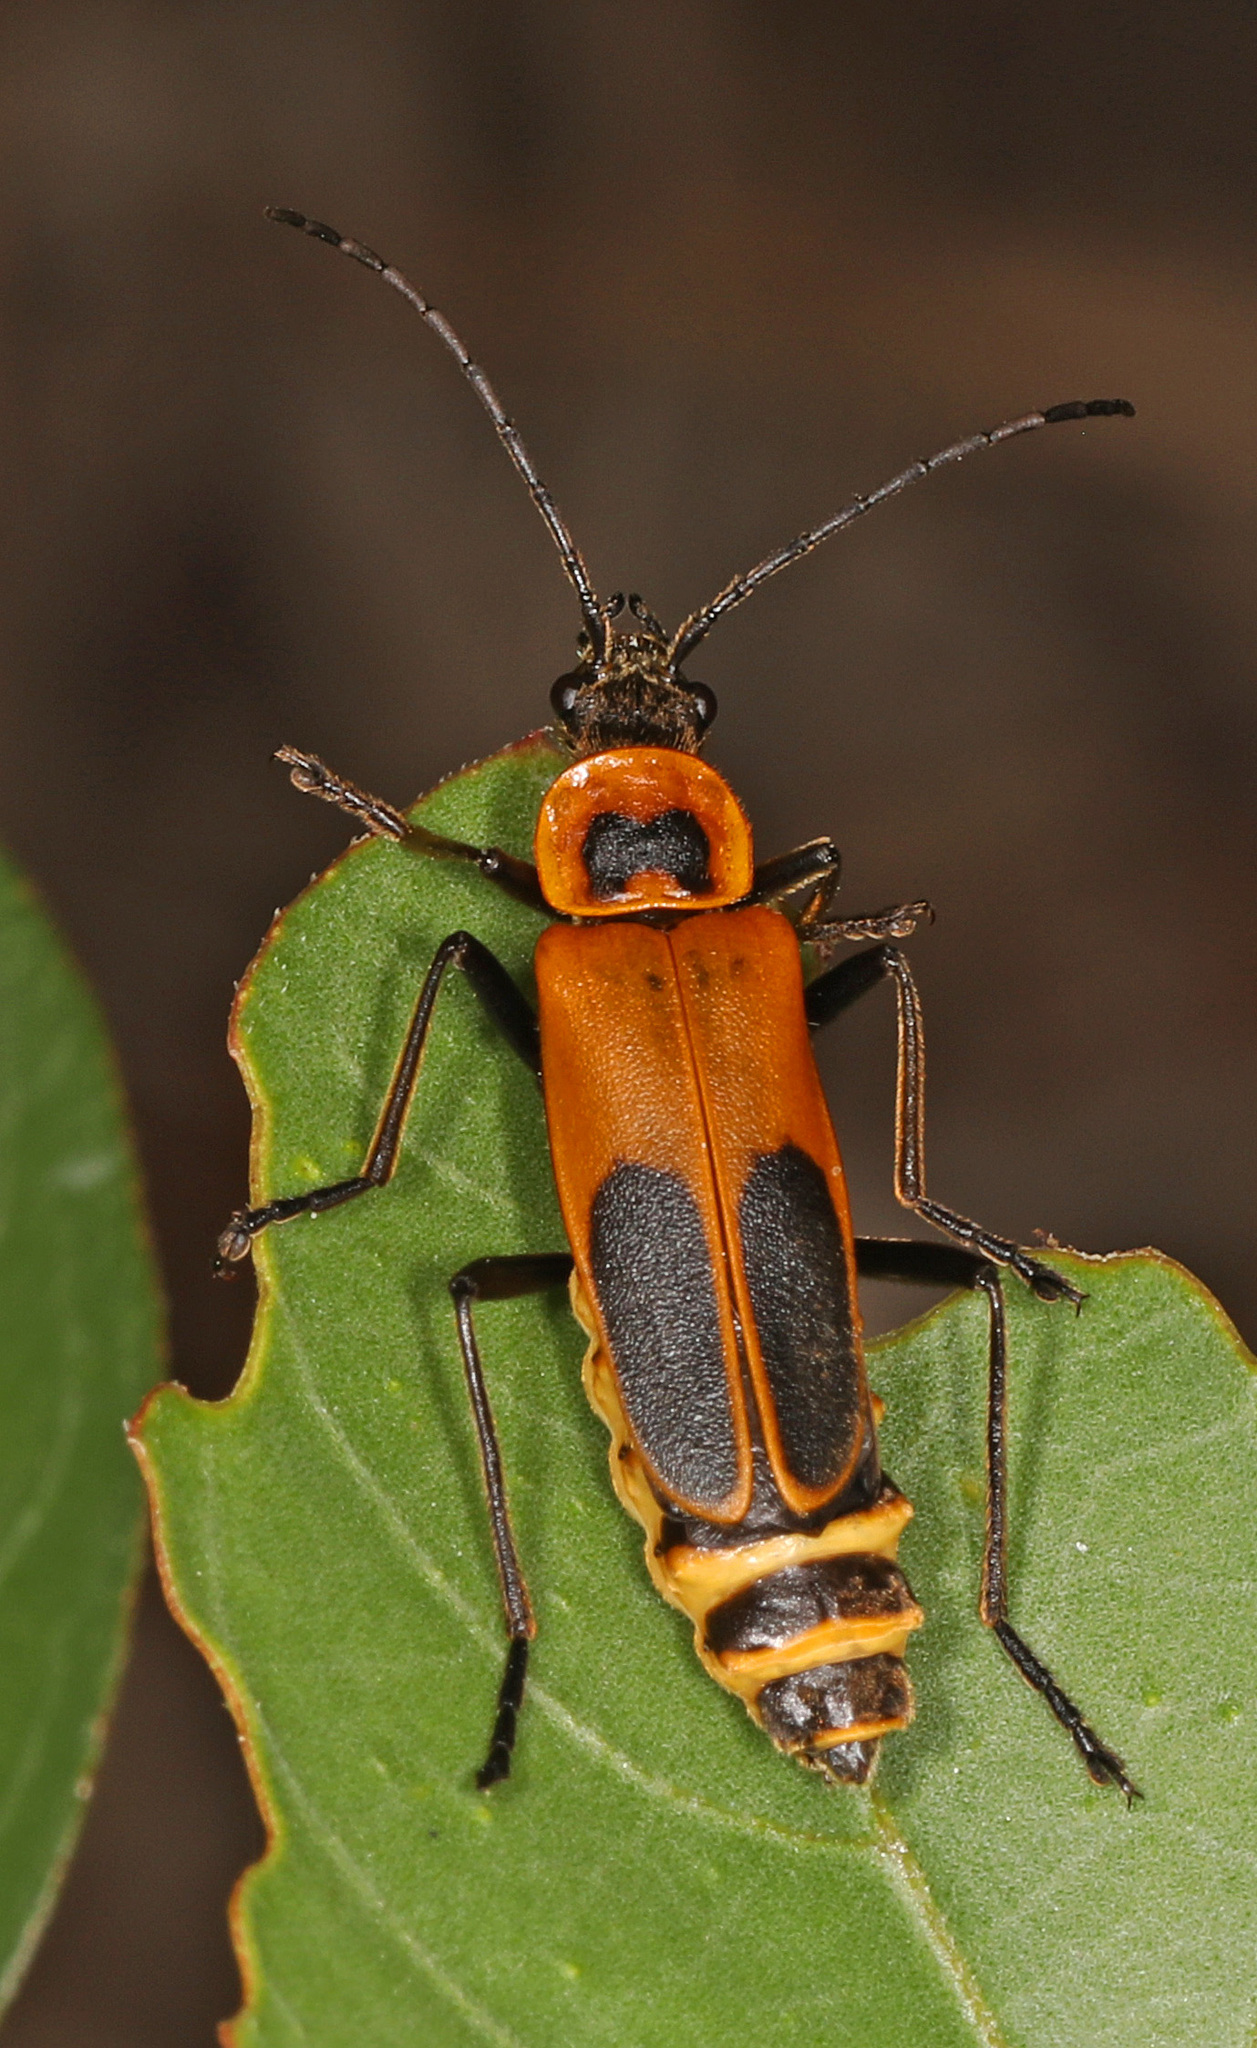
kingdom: Animalia
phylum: Arthropoda
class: Insecta
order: Coleoptera
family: Cantharidae
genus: Chauliognathus
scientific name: Chauliognathus pensylvanicus
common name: Goldenrod soldier beetle
